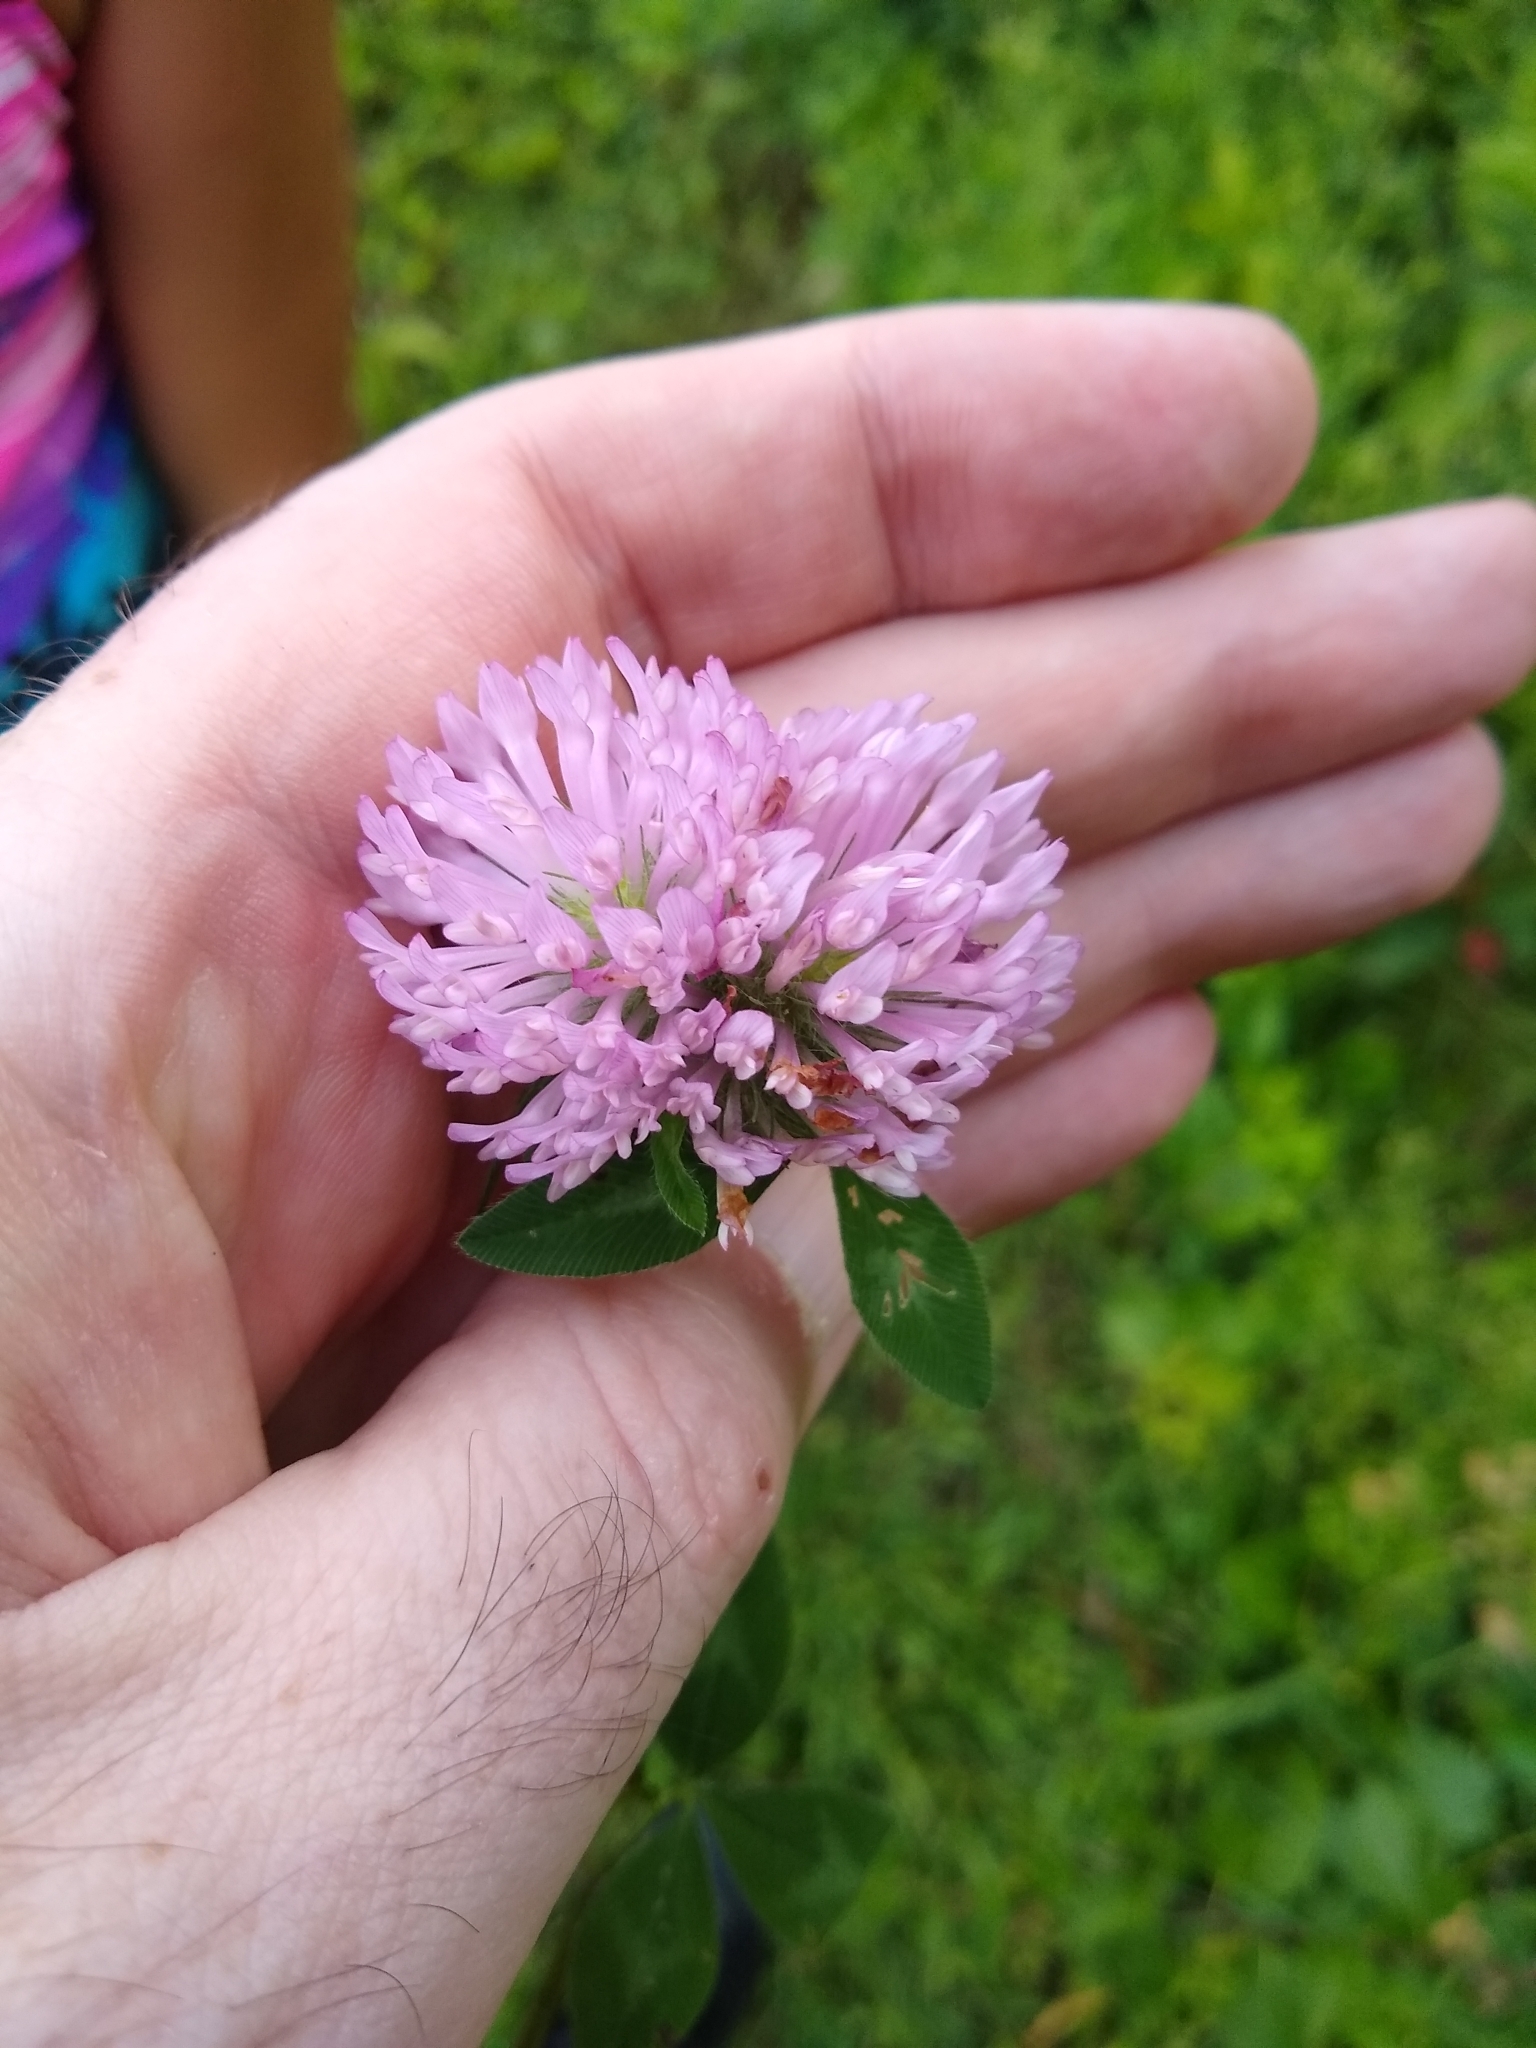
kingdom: Plantae
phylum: Tracheophyta
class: Magnoliopsida
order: Fabales
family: Fabaceae
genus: Trifolium
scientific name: Trifolium pratense
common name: Red clover
